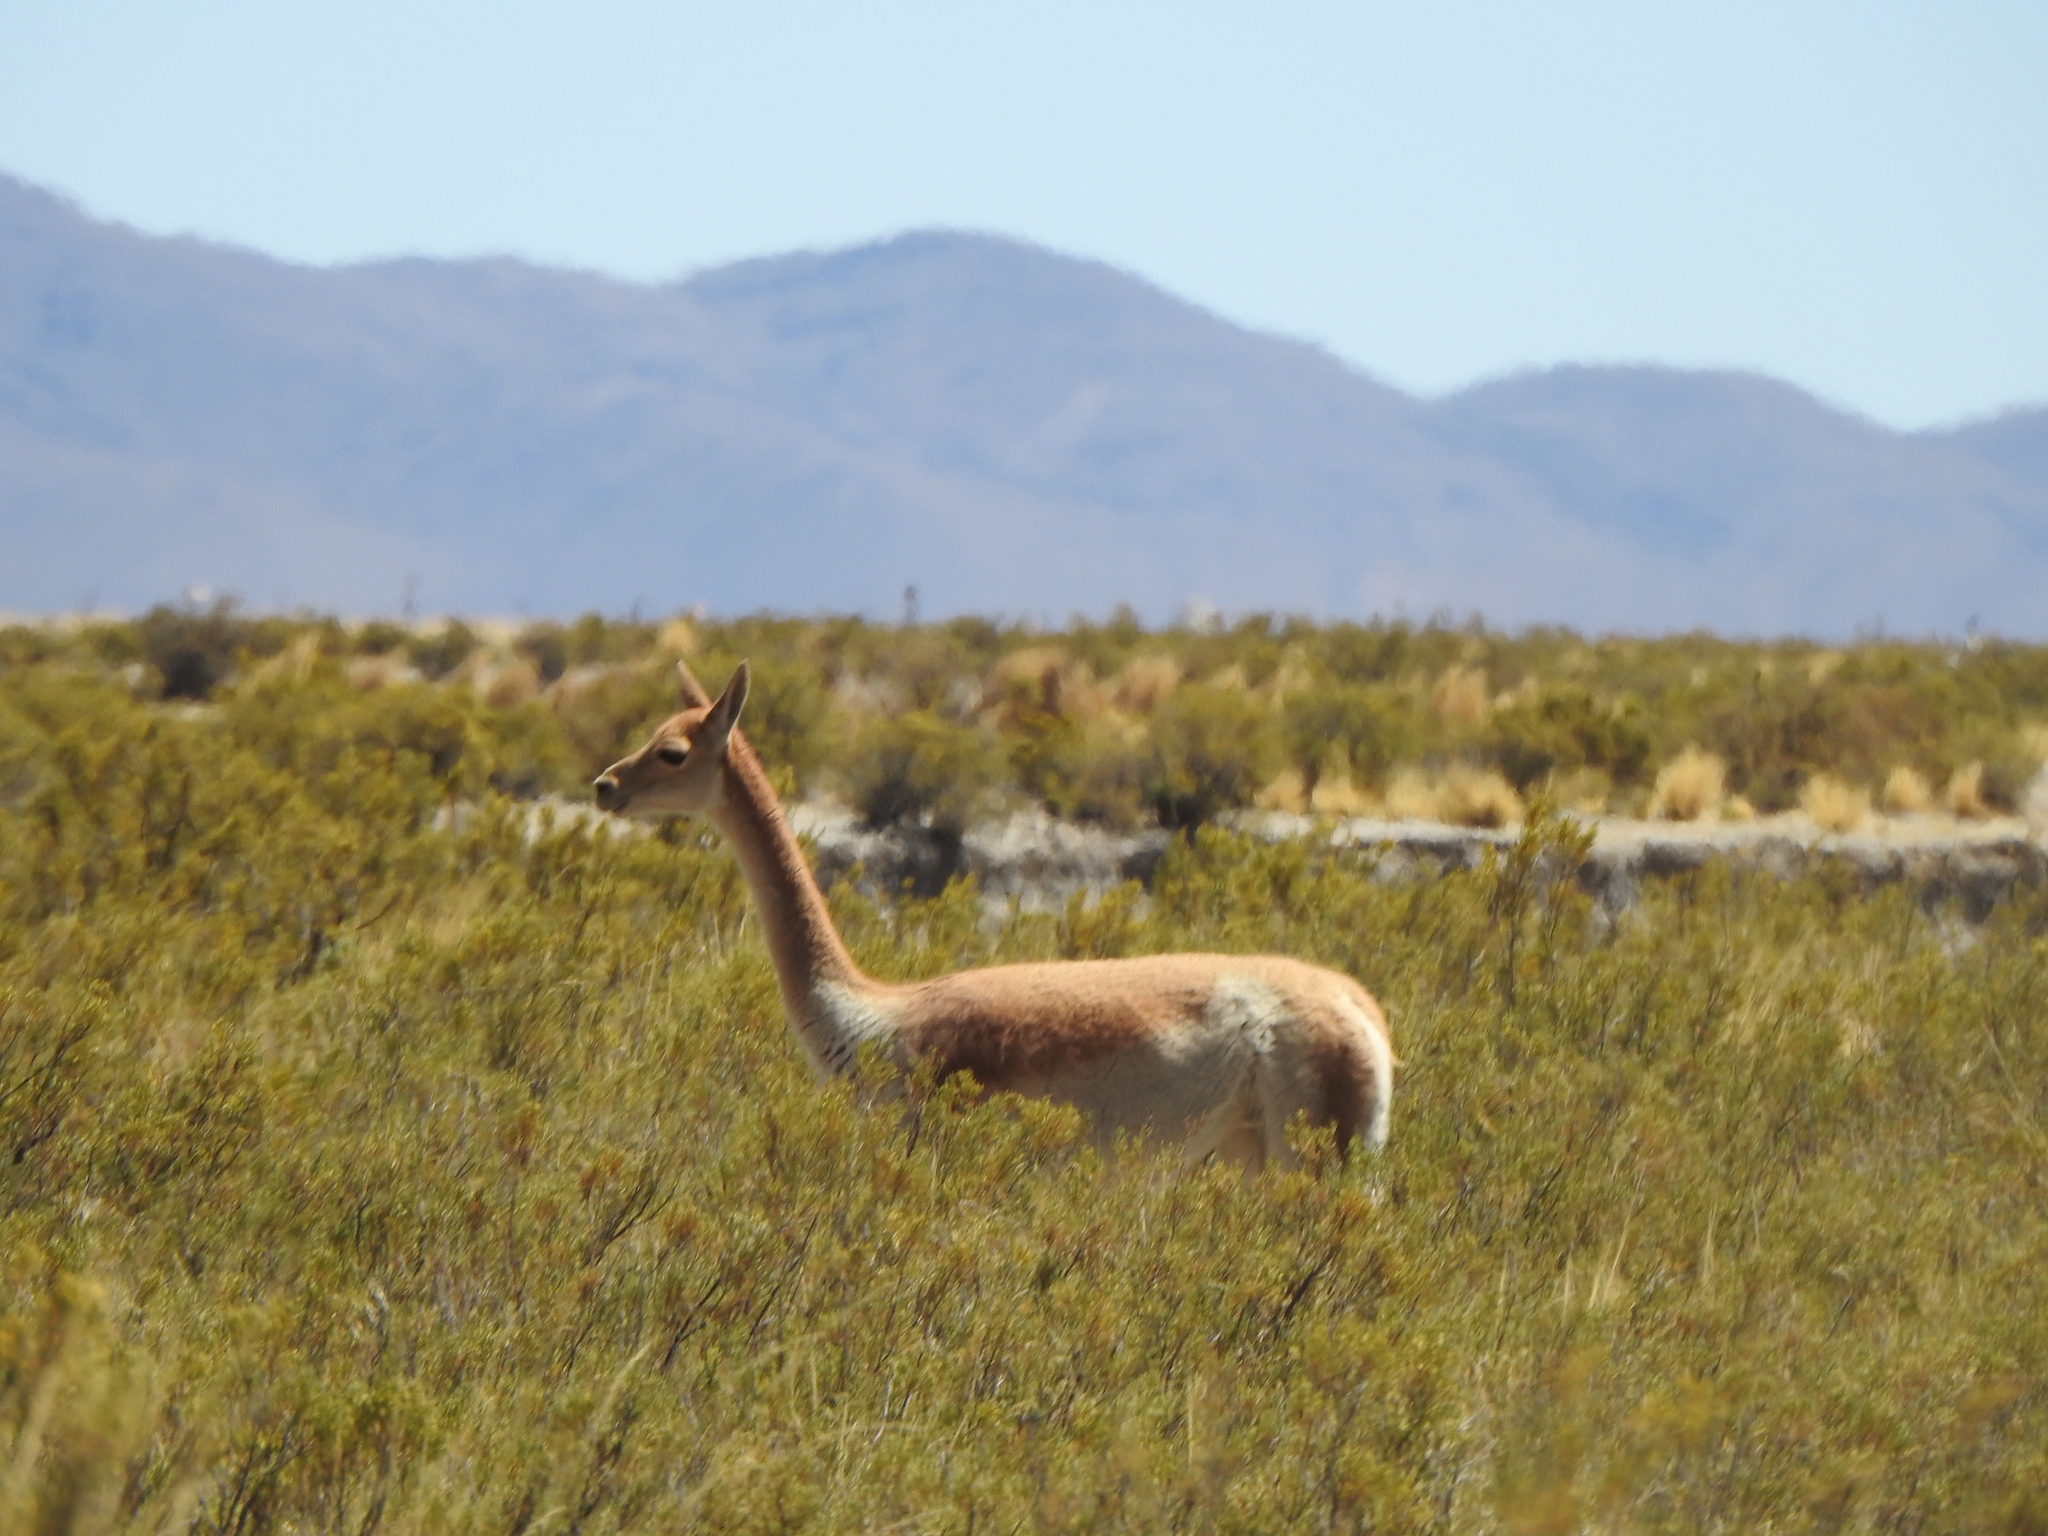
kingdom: Animalia
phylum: Chordata
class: Mammalia
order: Artiodactyla
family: Camelidae
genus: Vicugna
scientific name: Vicugna vicugna
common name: Vicugna
